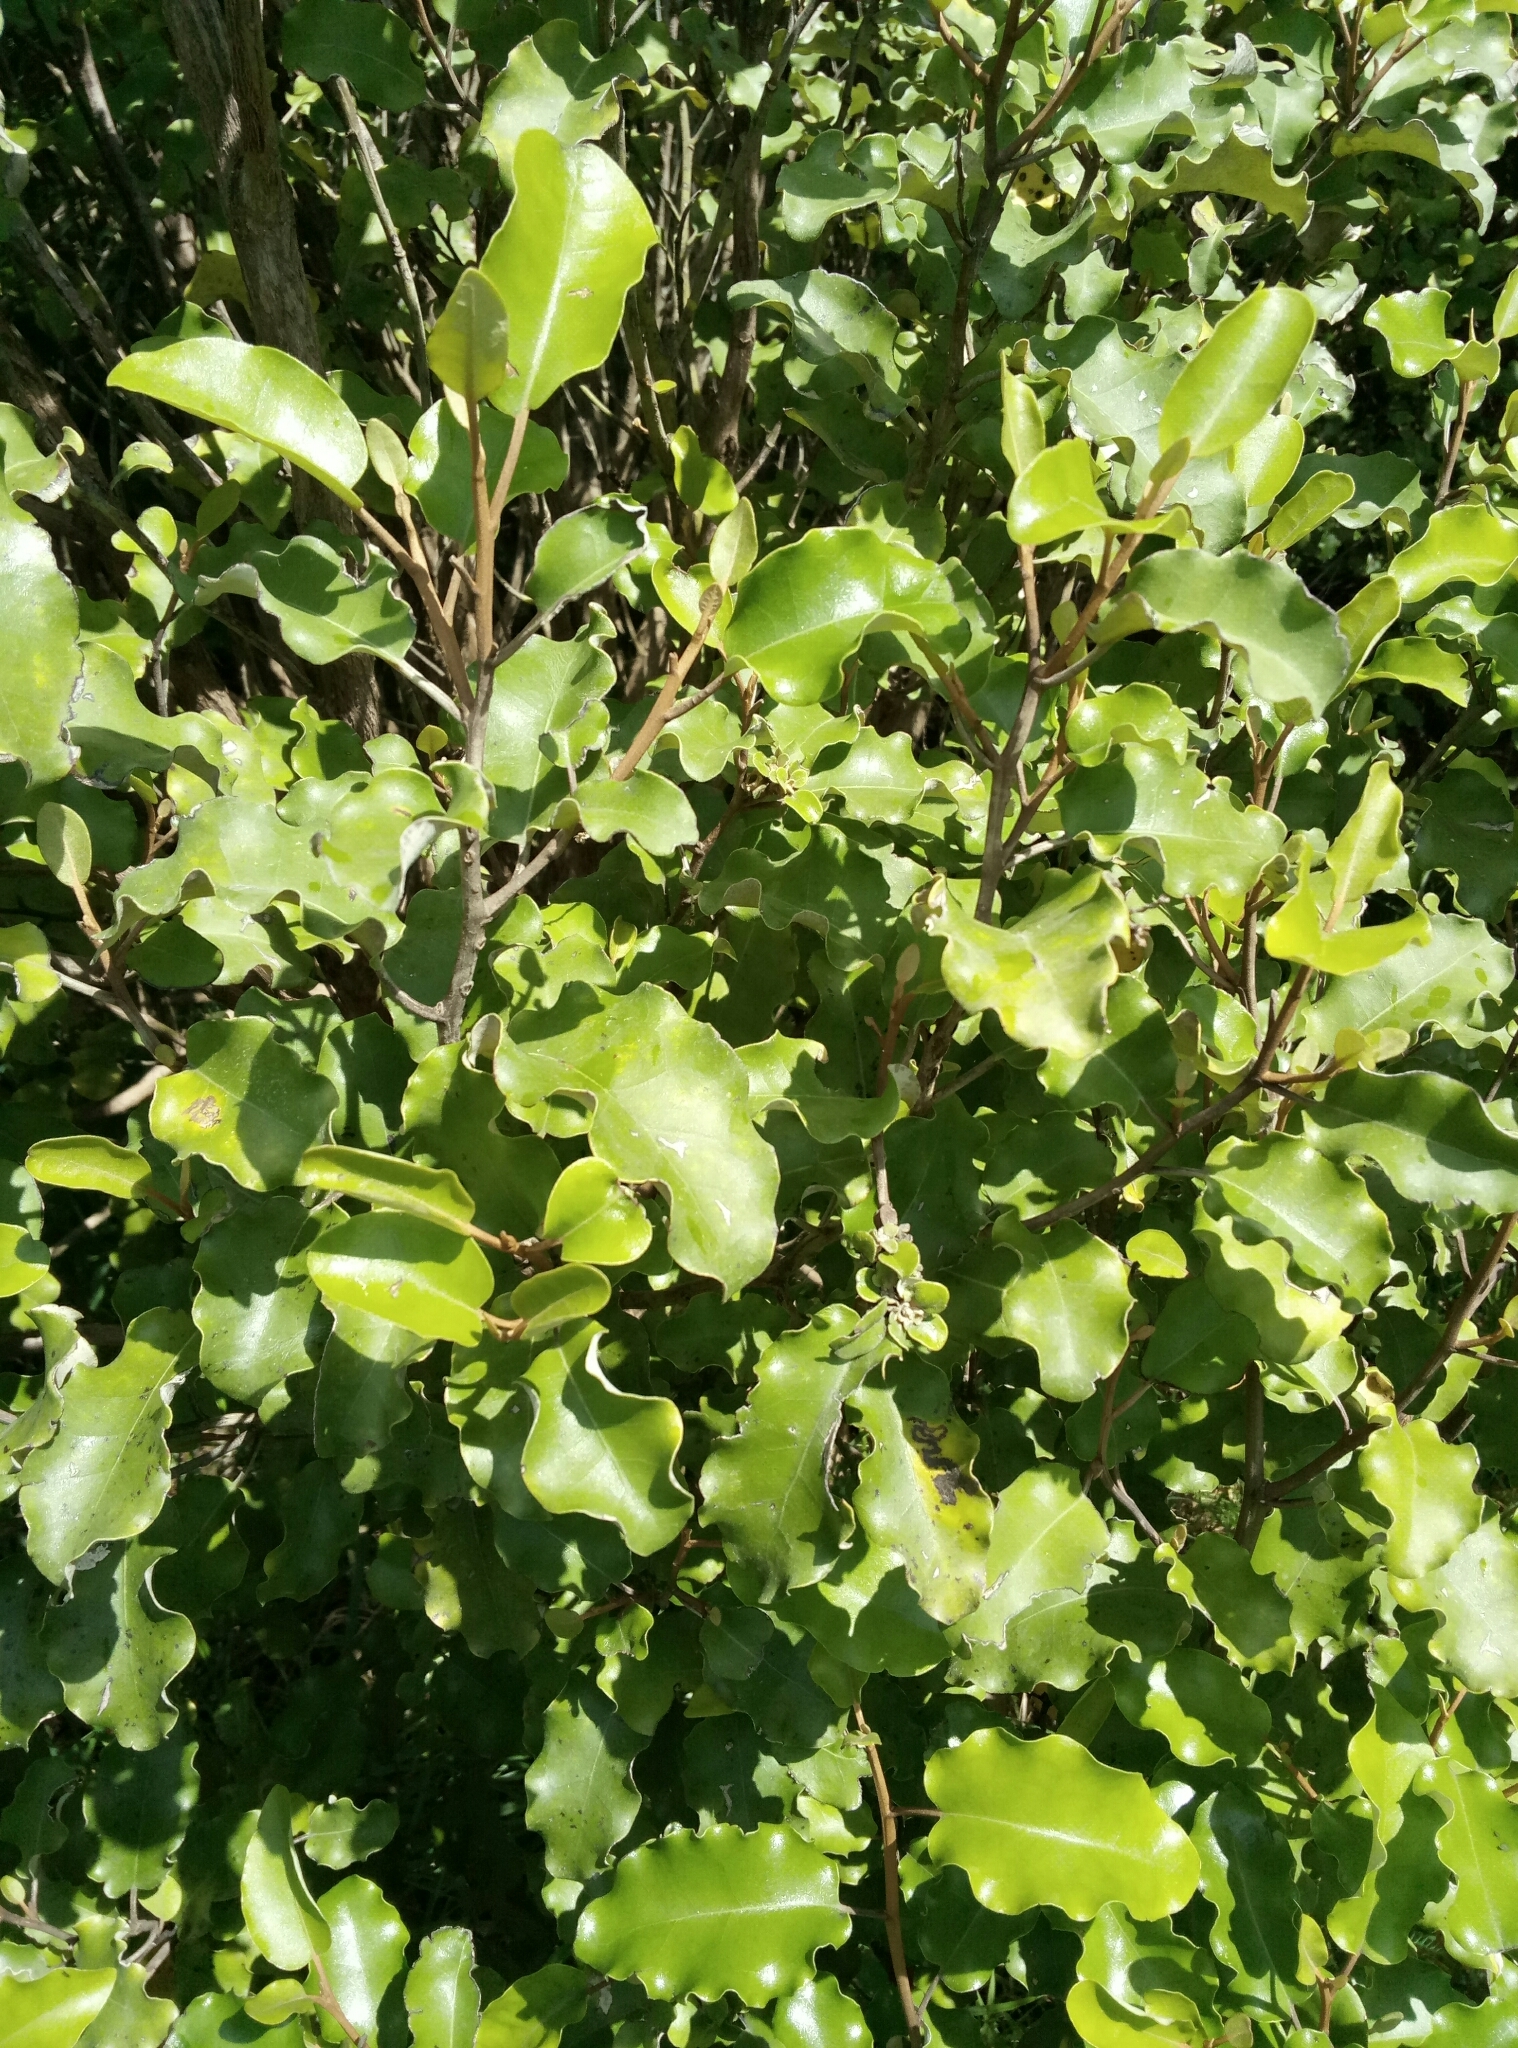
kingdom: Plantae
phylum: Tracheophyta
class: Magnoliopsida
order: Asterales
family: Asteraceae
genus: Olearia
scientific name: Olearia paniculata
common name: Akiraho
